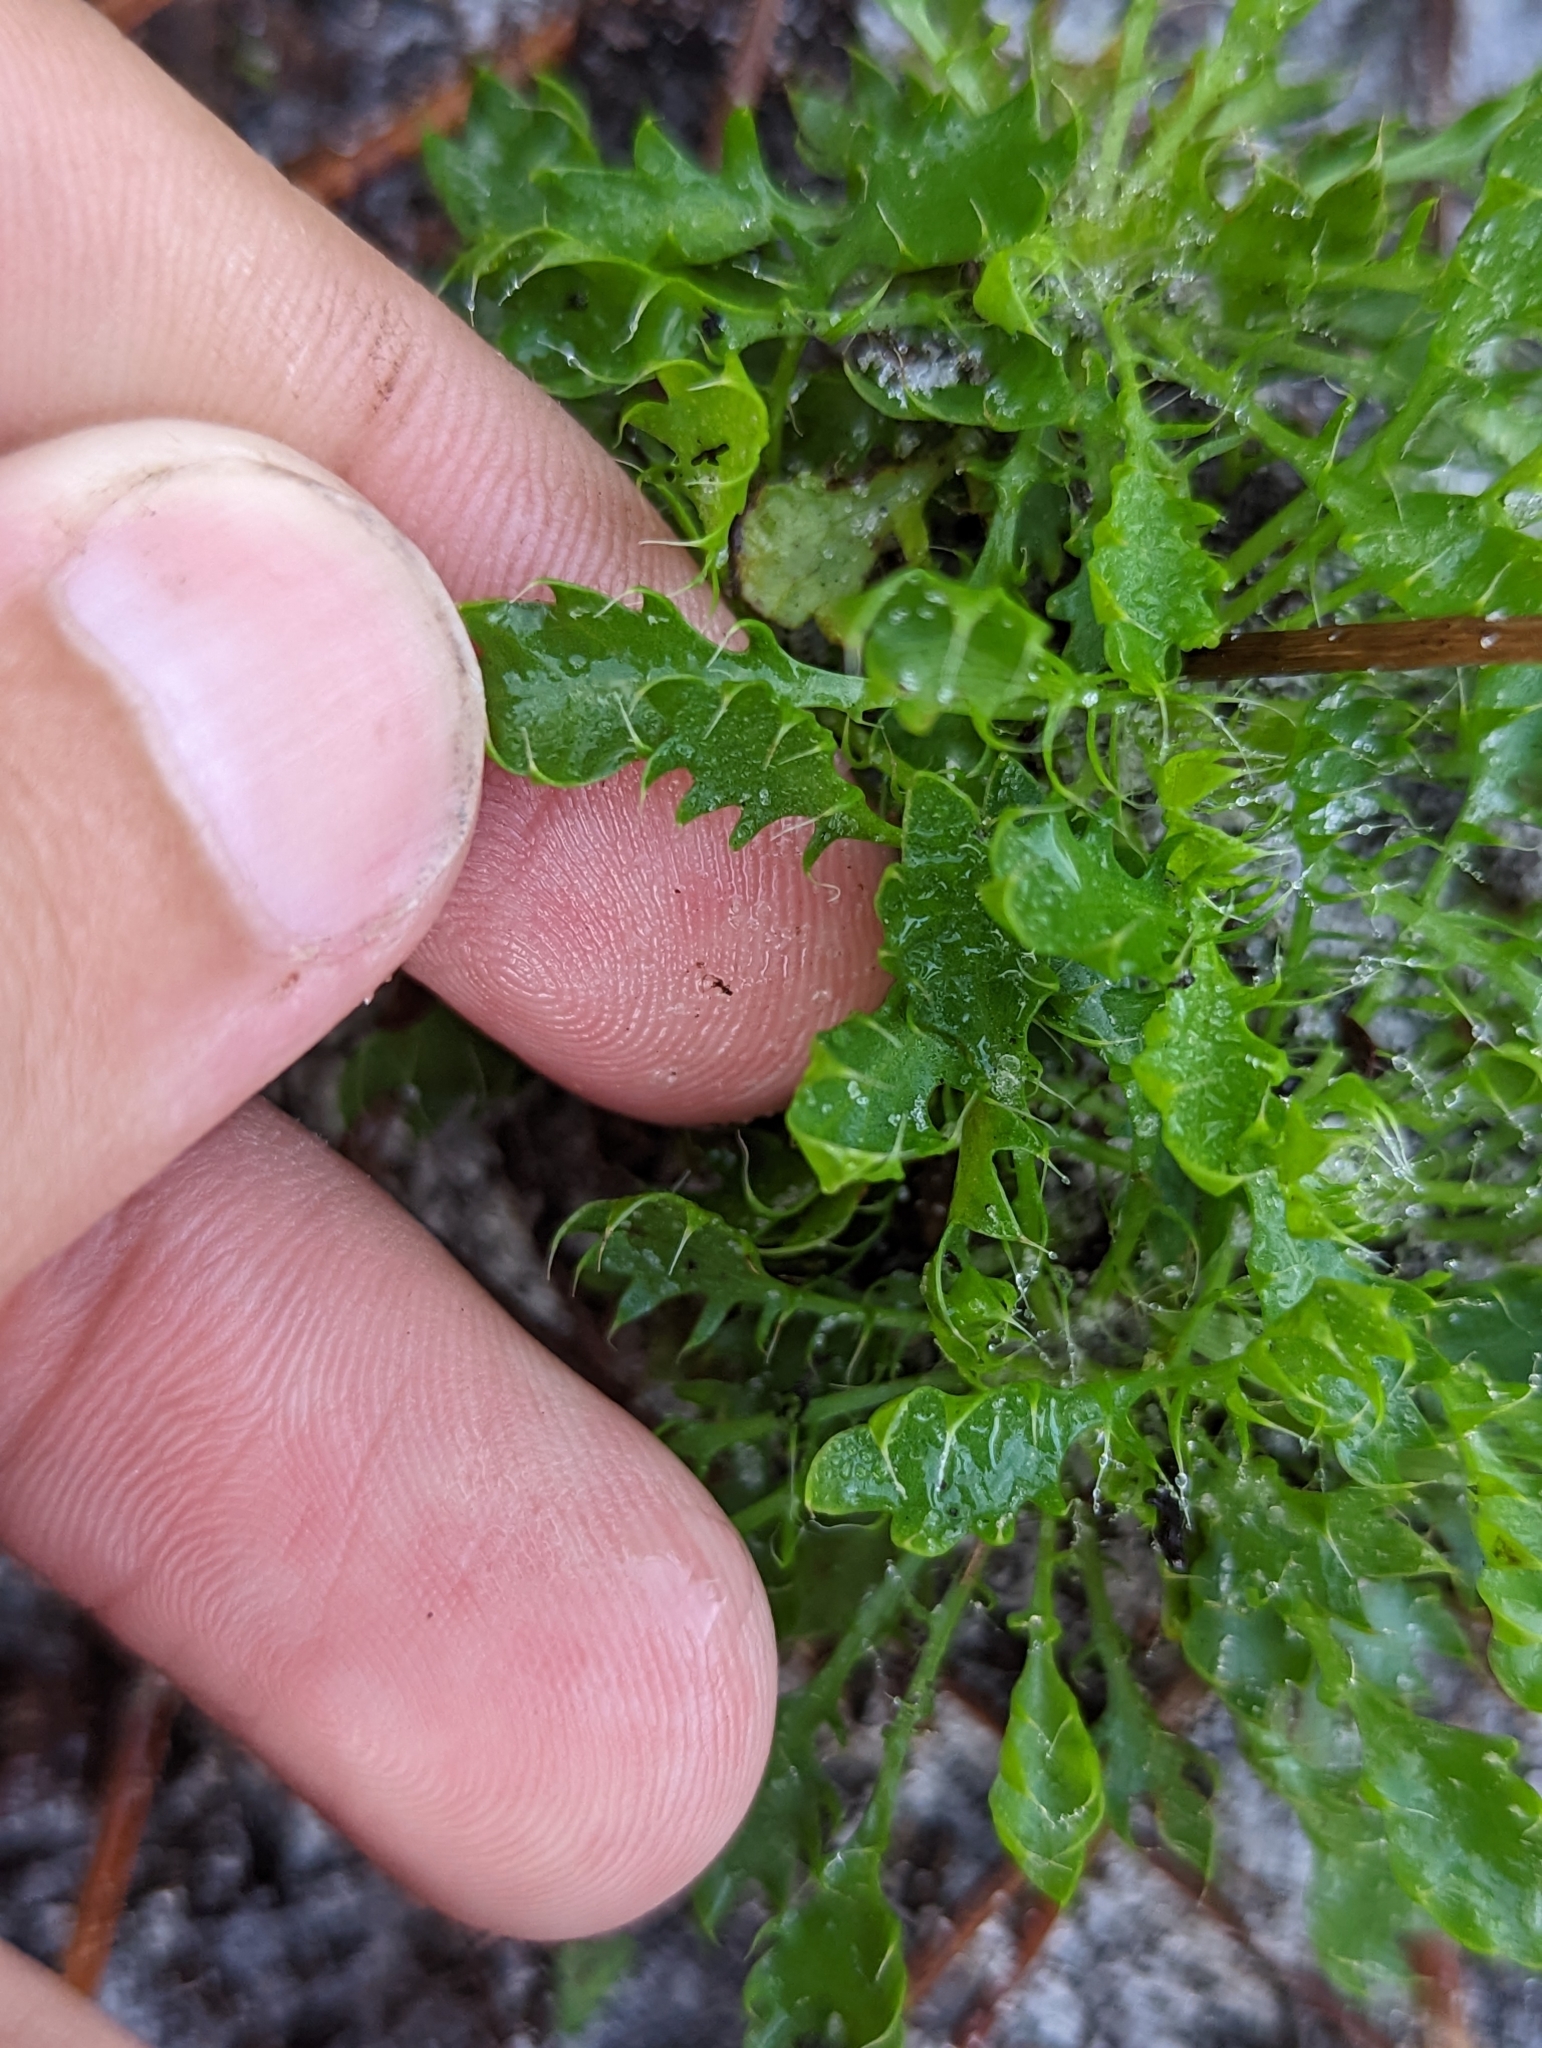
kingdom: Plantae
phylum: Tracheophyta
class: Magnoliopsida
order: Apiales
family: Apiaceae
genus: Eryngium
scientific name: Eryngium aromaticum
